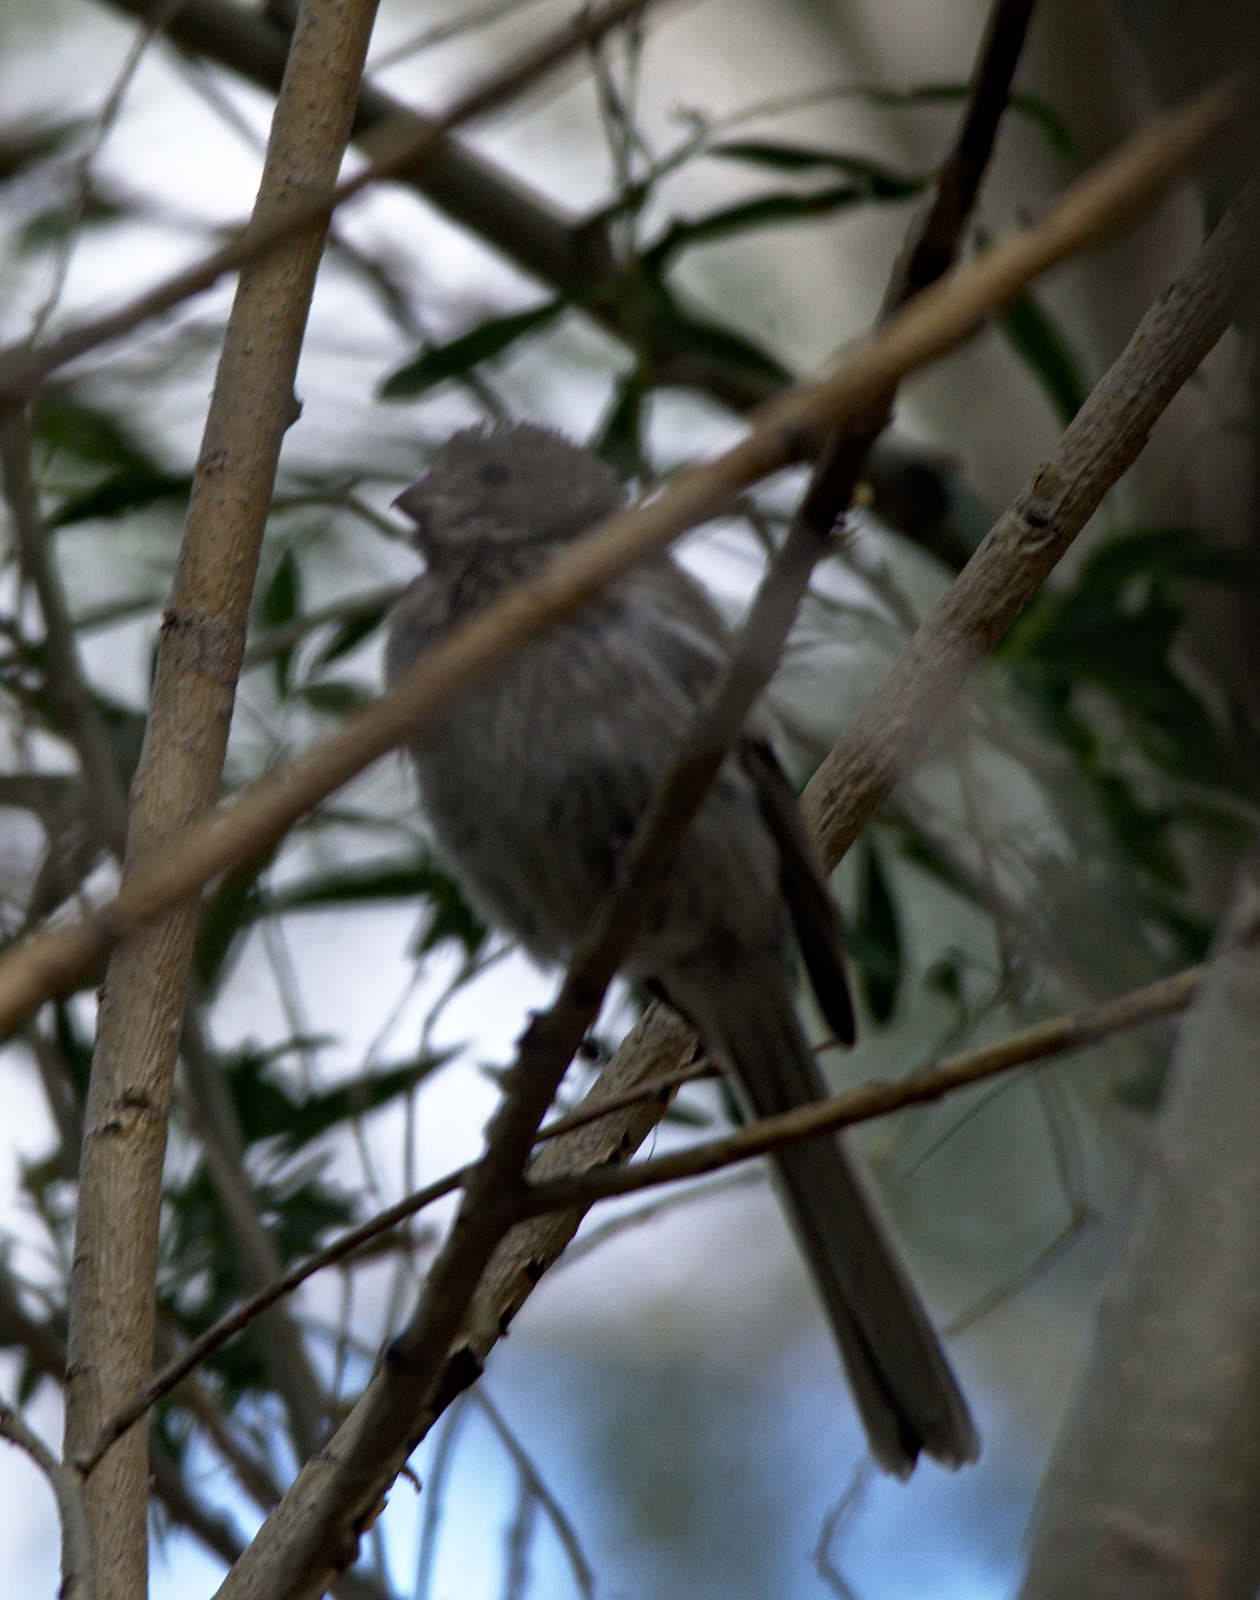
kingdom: Animalia
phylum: Chordata
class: Aves
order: Passeriformes
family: Fringillidae
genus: Carpodacus
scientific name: Carpodacus sibiricus
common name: Long-tailed rosefinch
